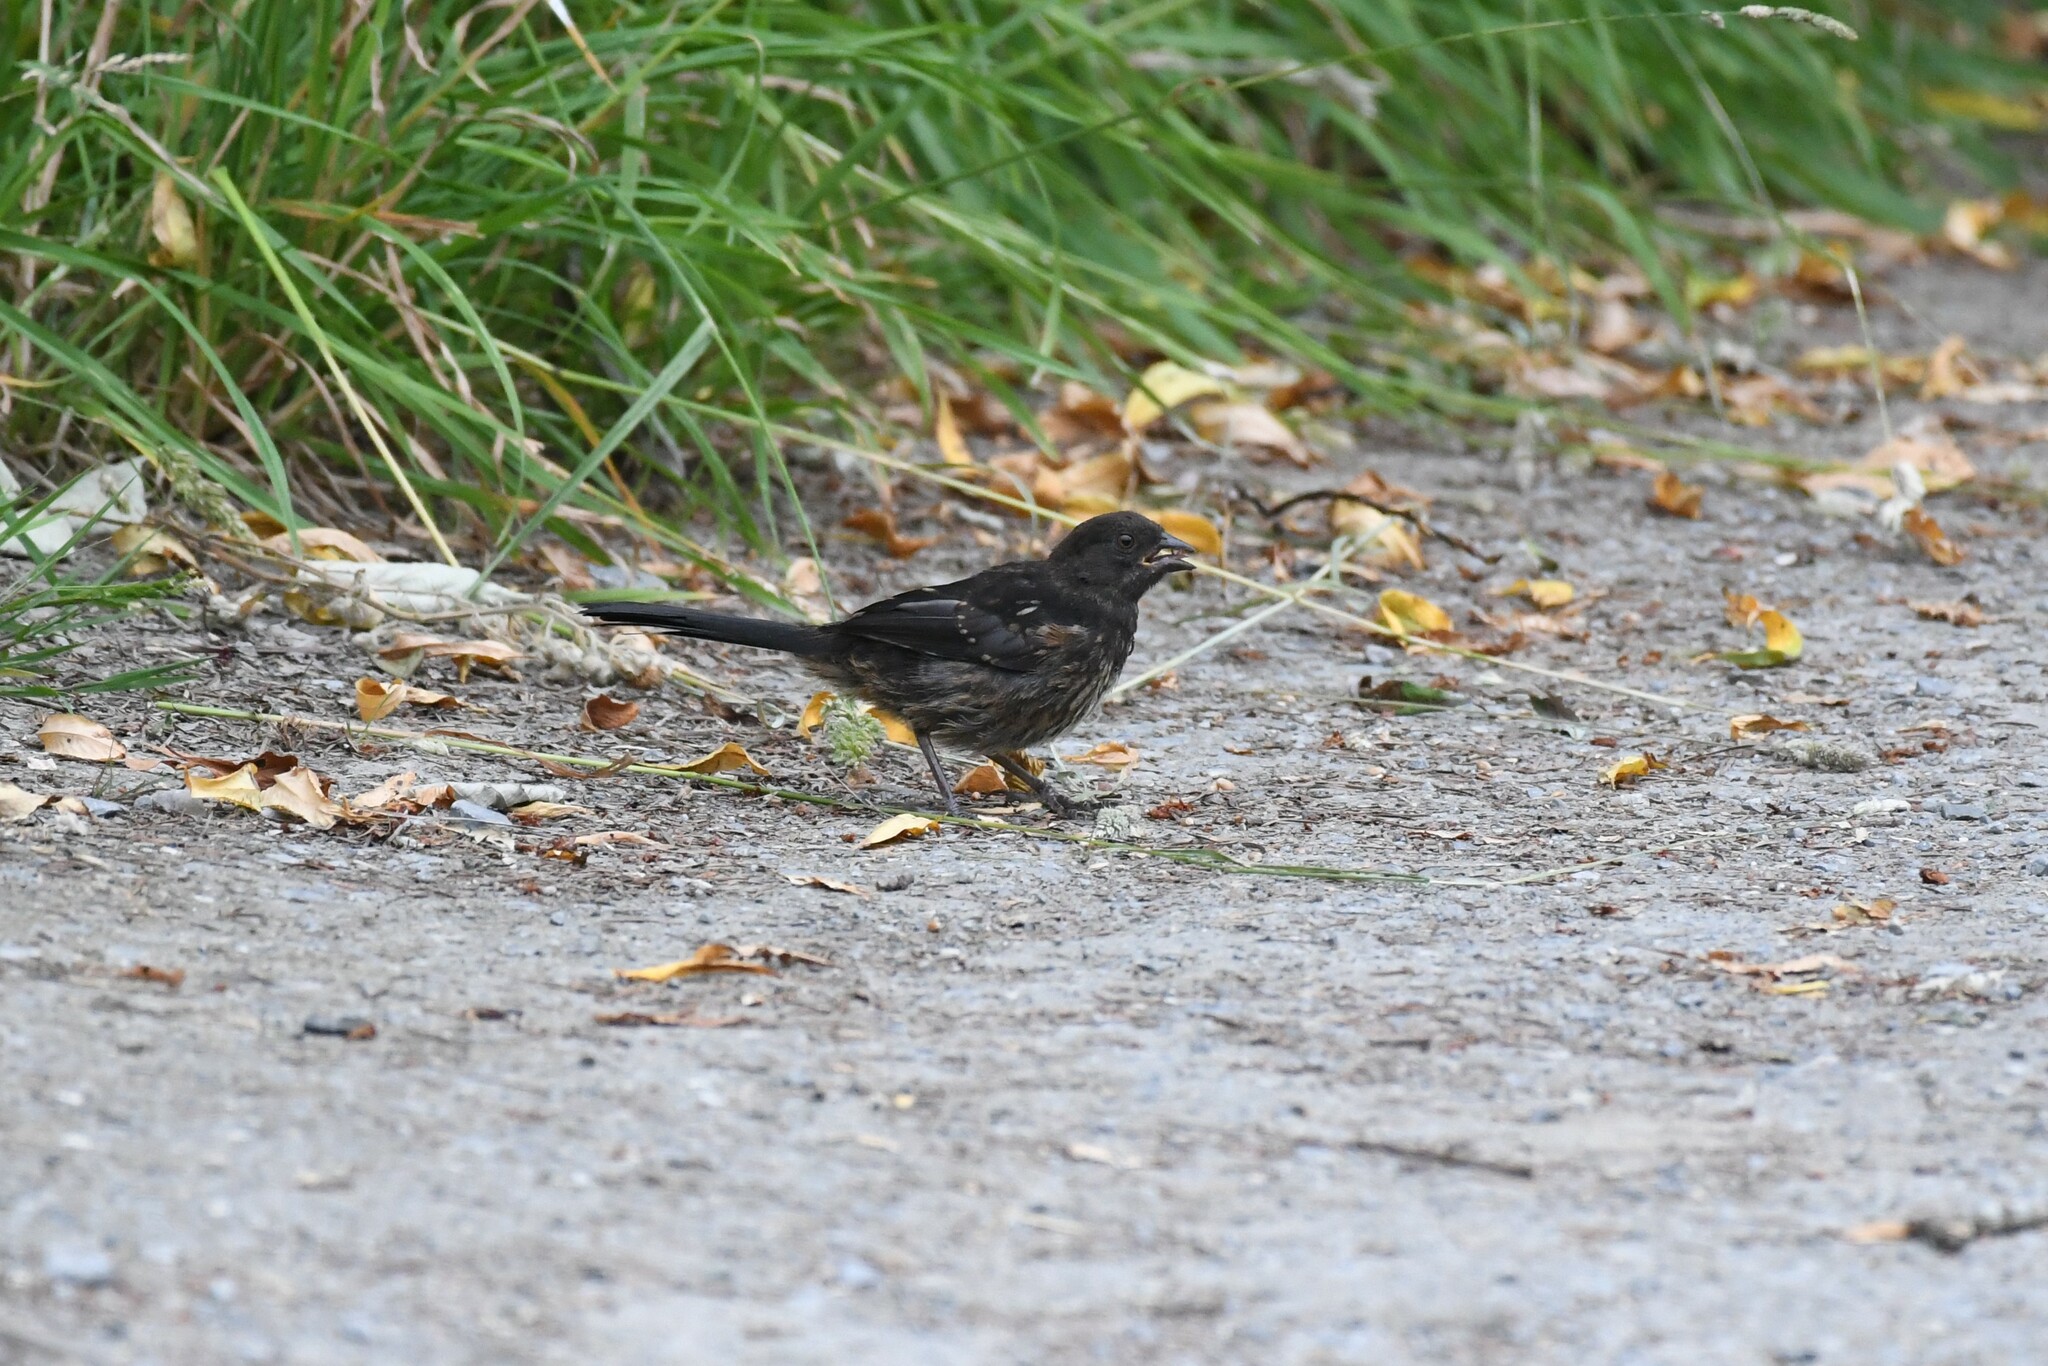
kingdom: Animalia
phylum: Chordata
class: Aves
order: Passeriformes
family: Passerellidae
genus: Pipilo
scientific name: Pipilo maculatus
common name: Spotted towhee
